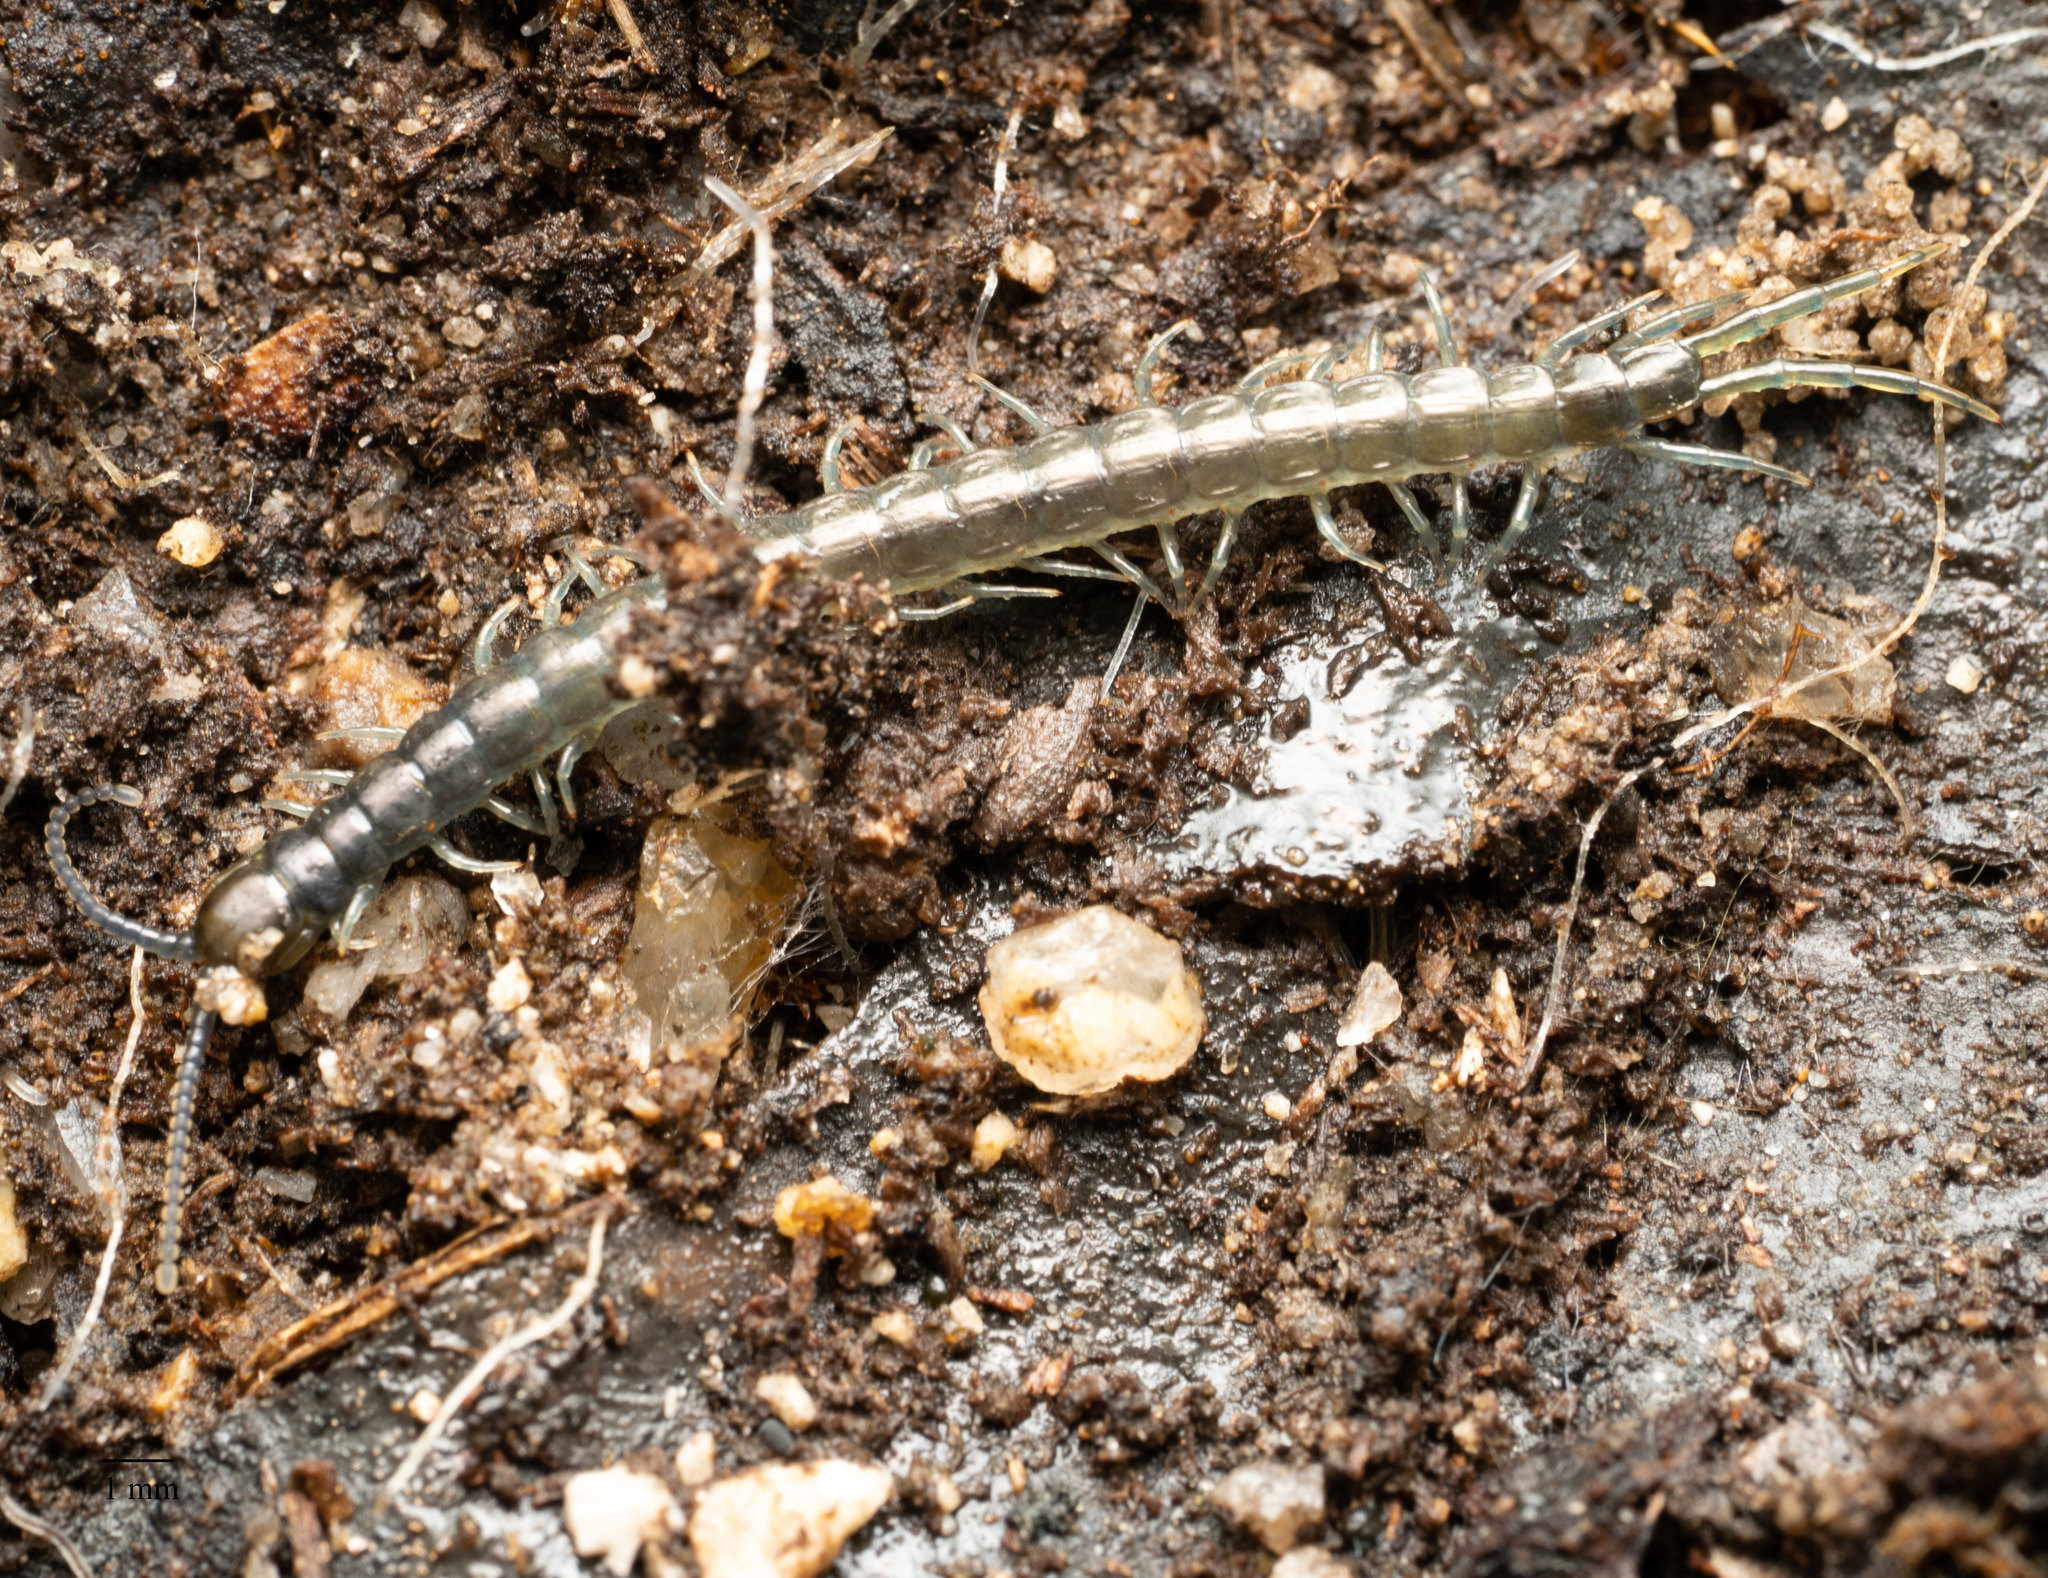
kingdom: Animalia
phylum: Arthropoda
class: Chilopoda
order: Scolopendromorpha
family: Scolopendridae
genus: Cormocephalus
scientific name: Cormocephalus esulcatus
